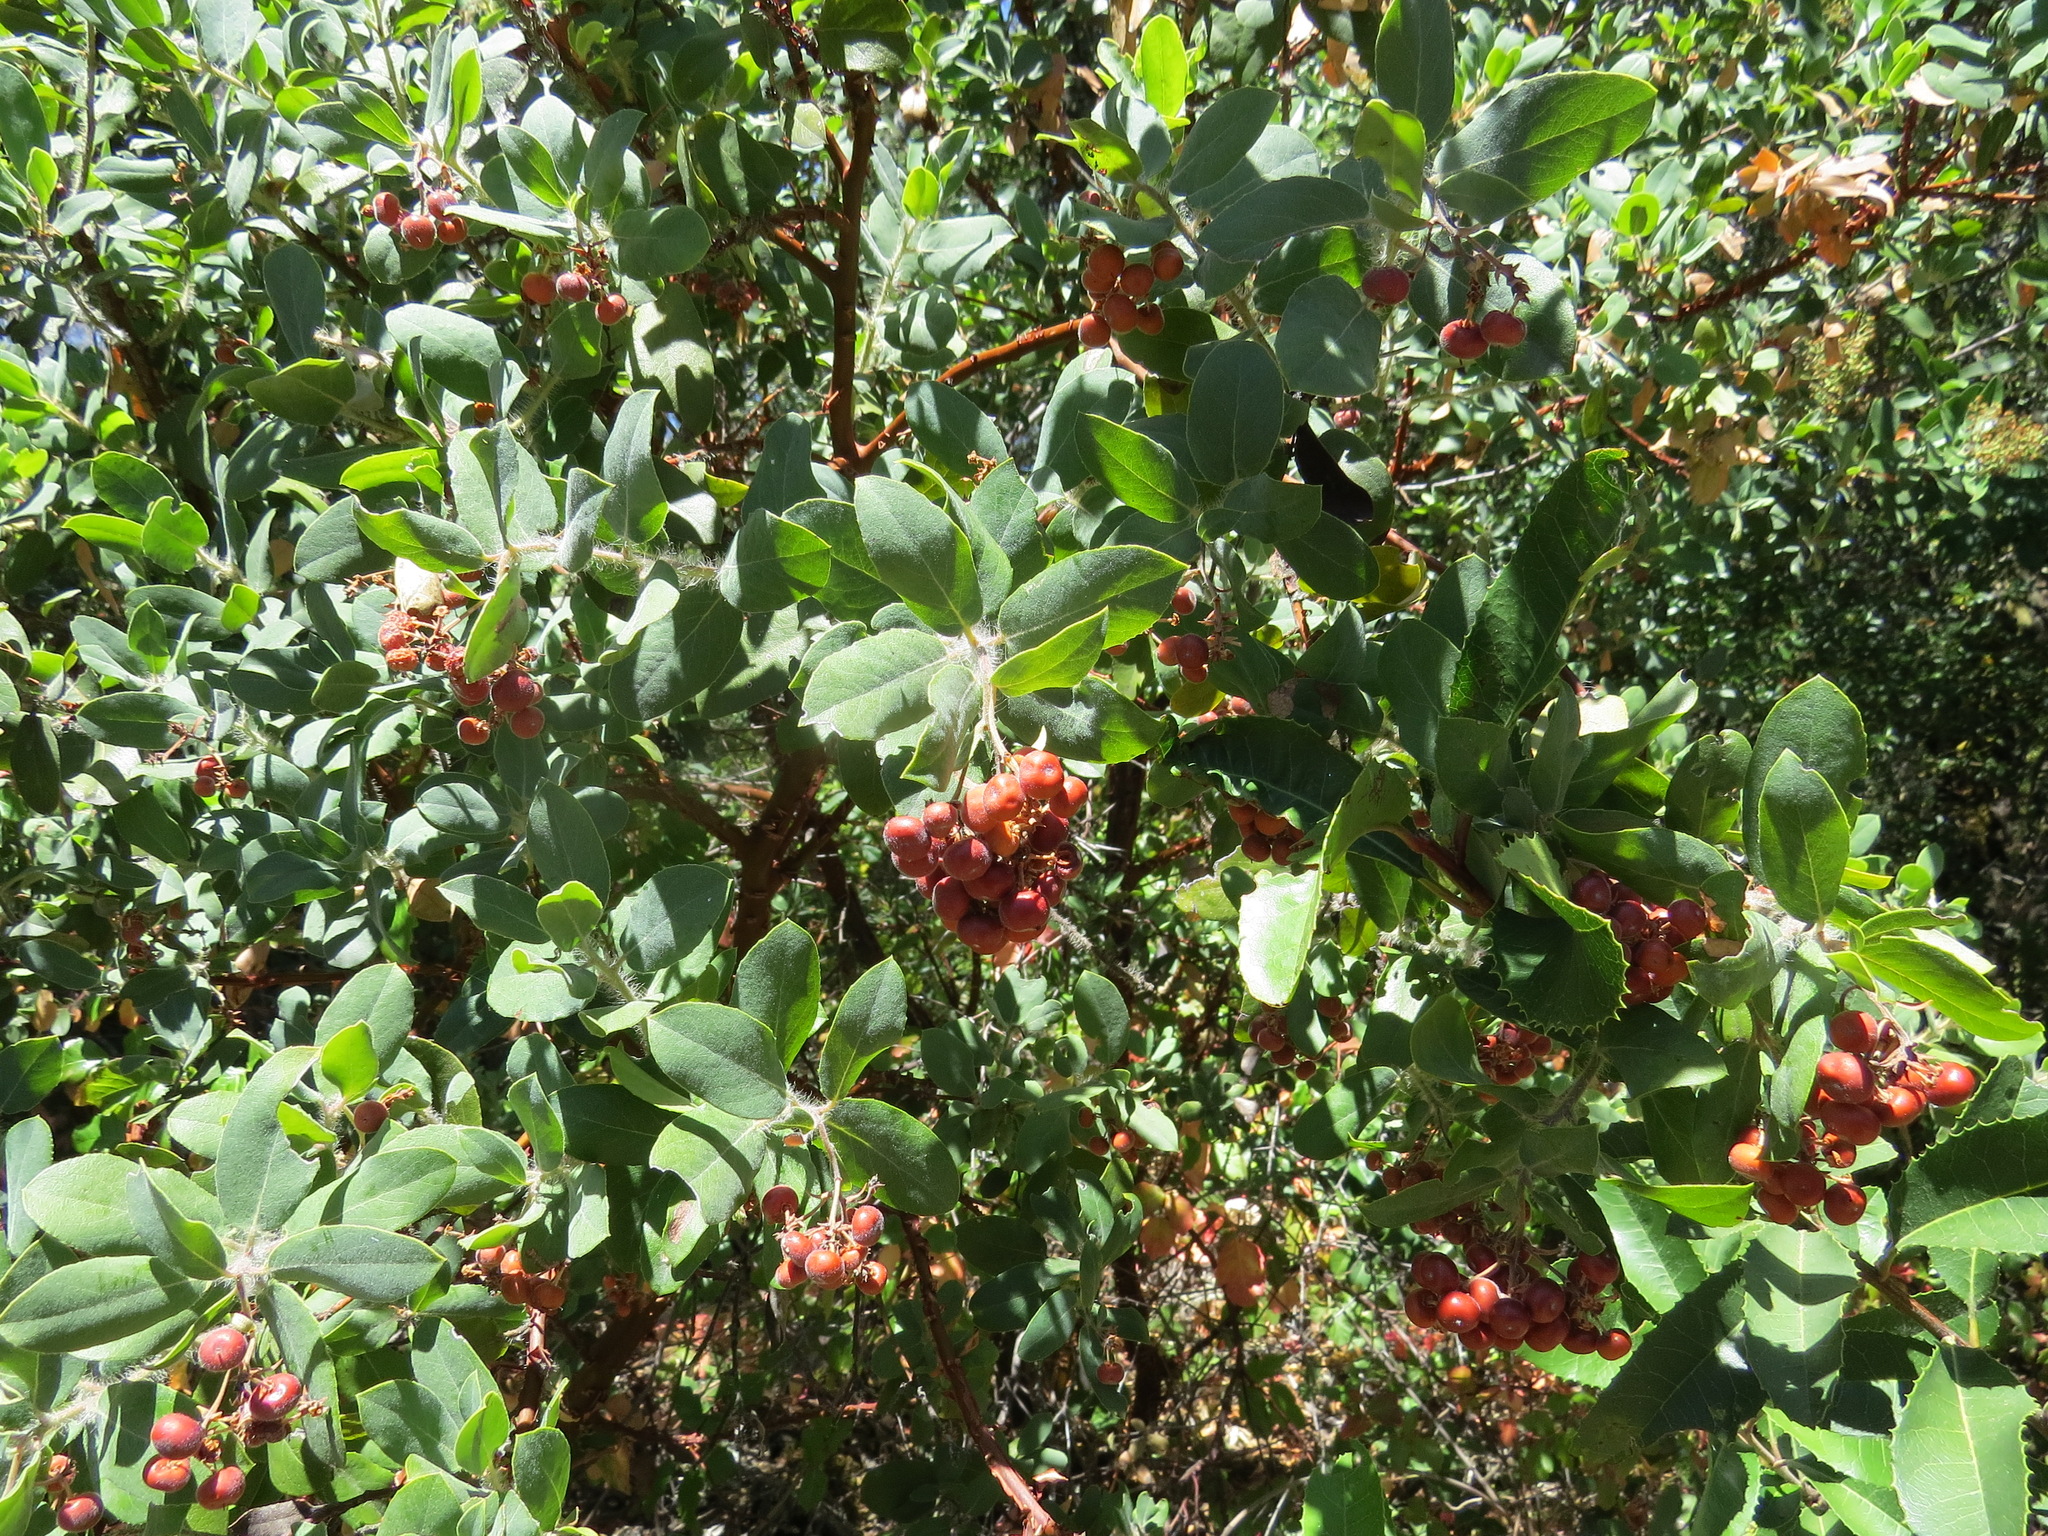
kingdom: Plantae
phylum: Tracheophyta
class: Magnoliopsida
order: Ericales
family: Ericaceae
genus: Arctostaphylos
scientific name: Arctostaphylos crustacea
